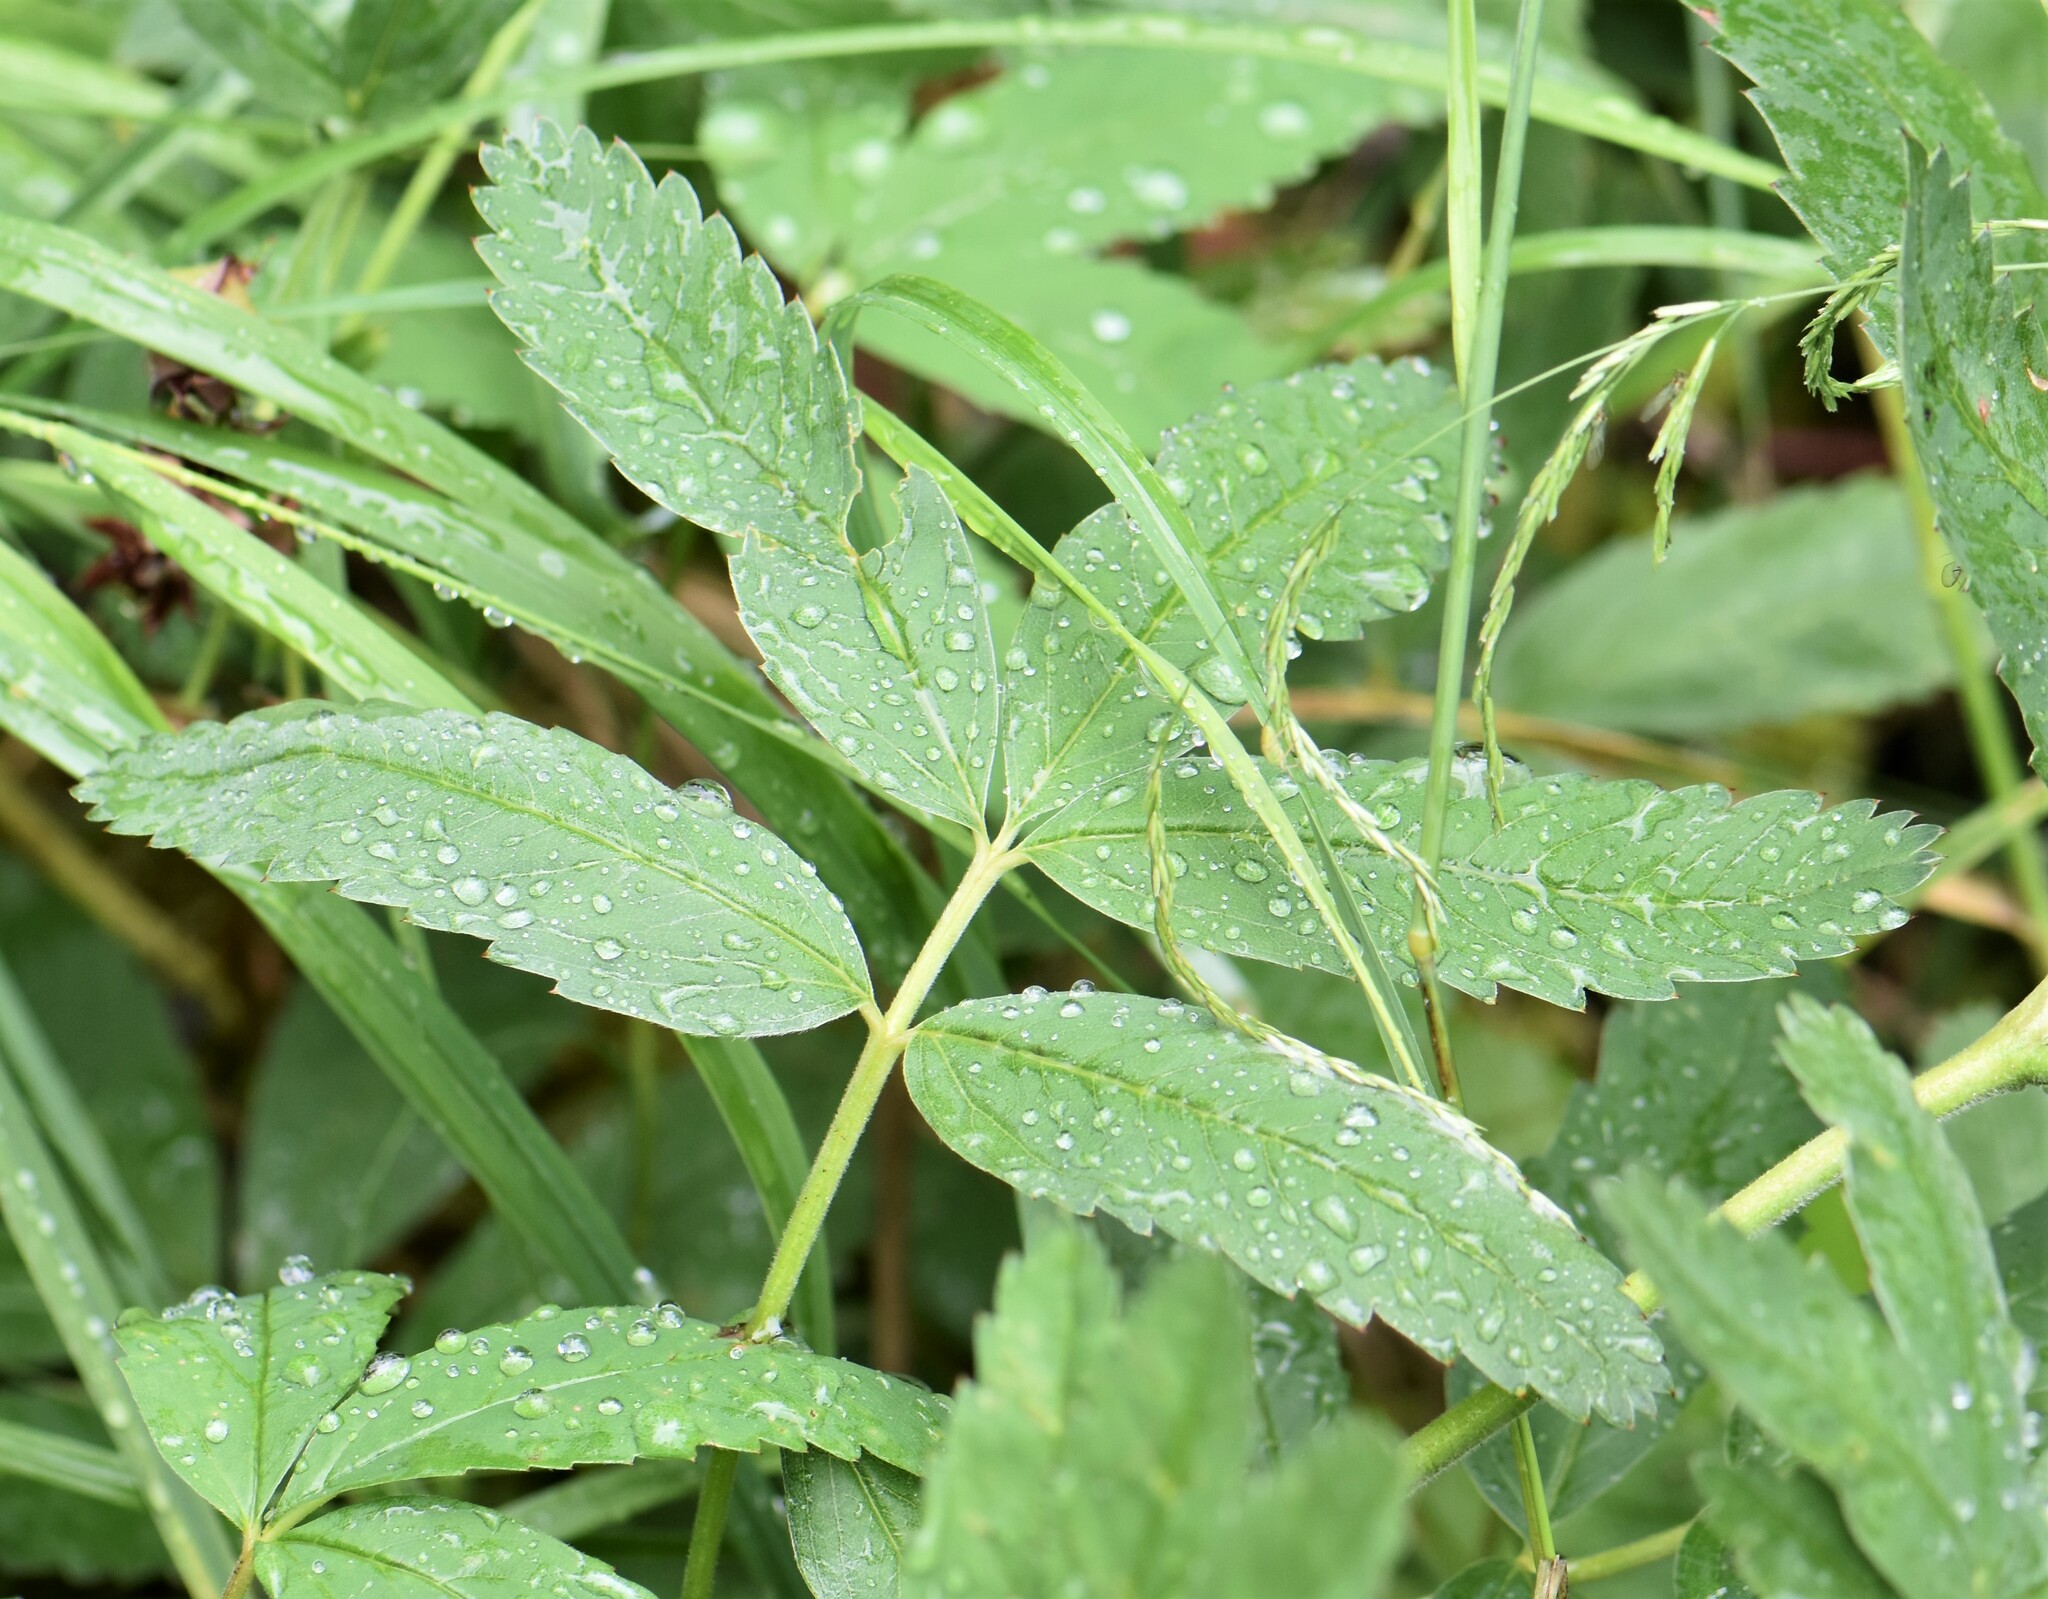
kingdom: Plantae
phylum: Tracheophyta
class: Magnoliopsida
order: Rosales
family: Rosaceae
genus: Comarum
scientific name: Comarum palustre
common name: Marsh cinquefoil
